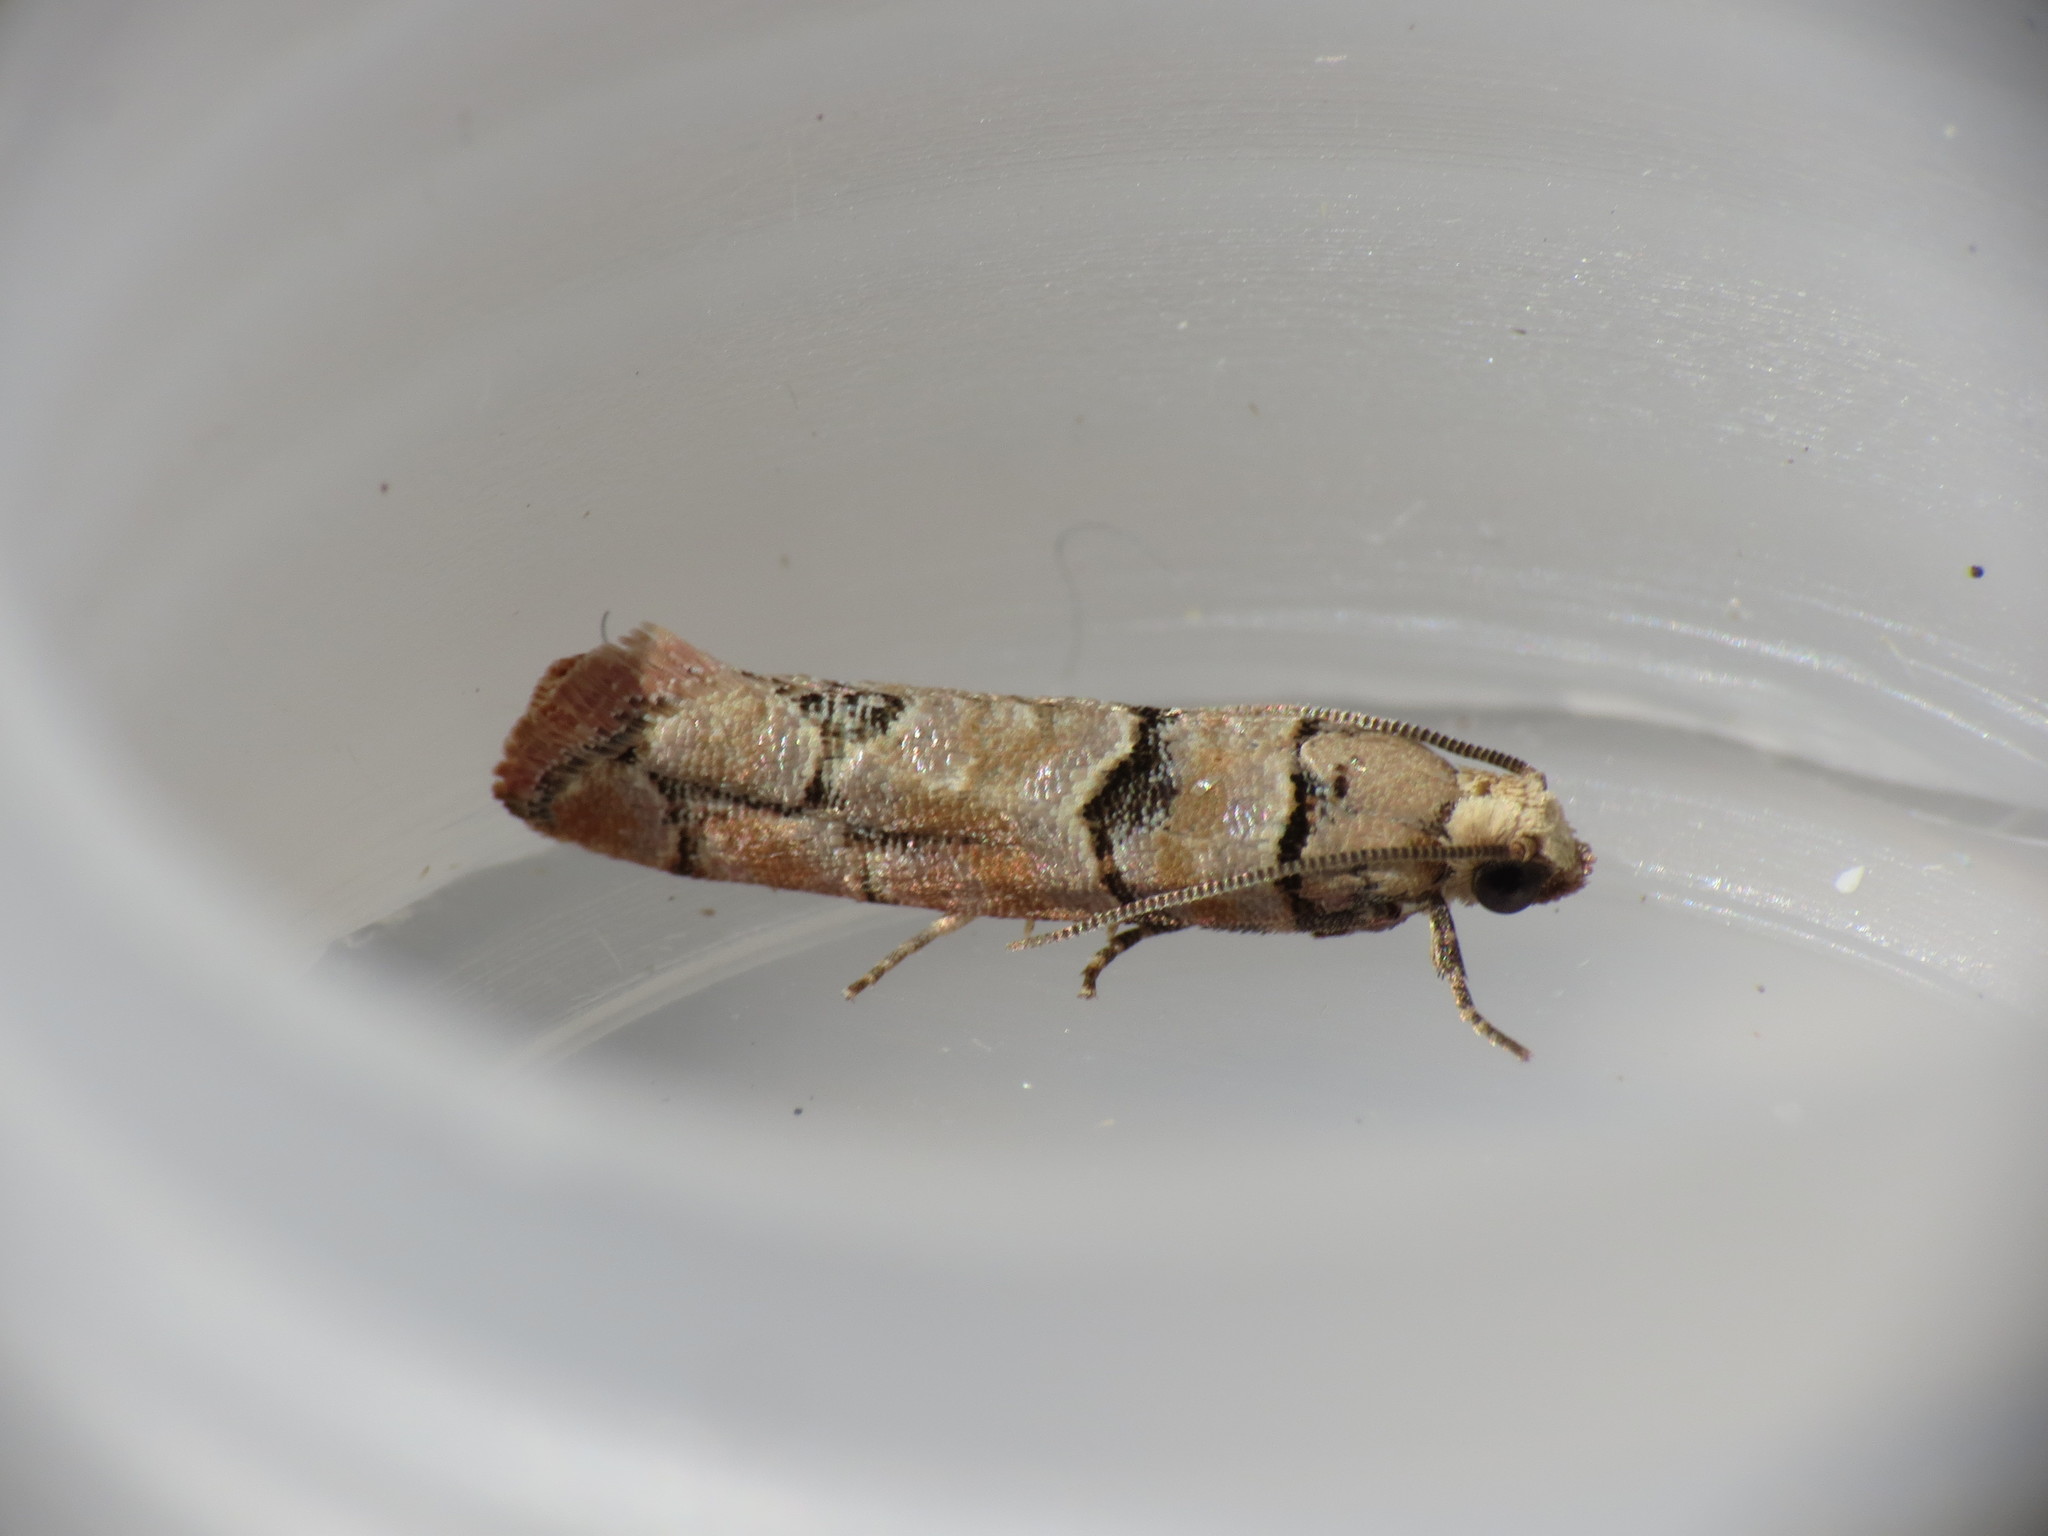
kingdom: Animalia
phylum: Arthropoda
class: Insecta
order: Lepidoptera
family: Tortricidae
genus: Blastesthia
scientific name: Blastesthia tessulatana
